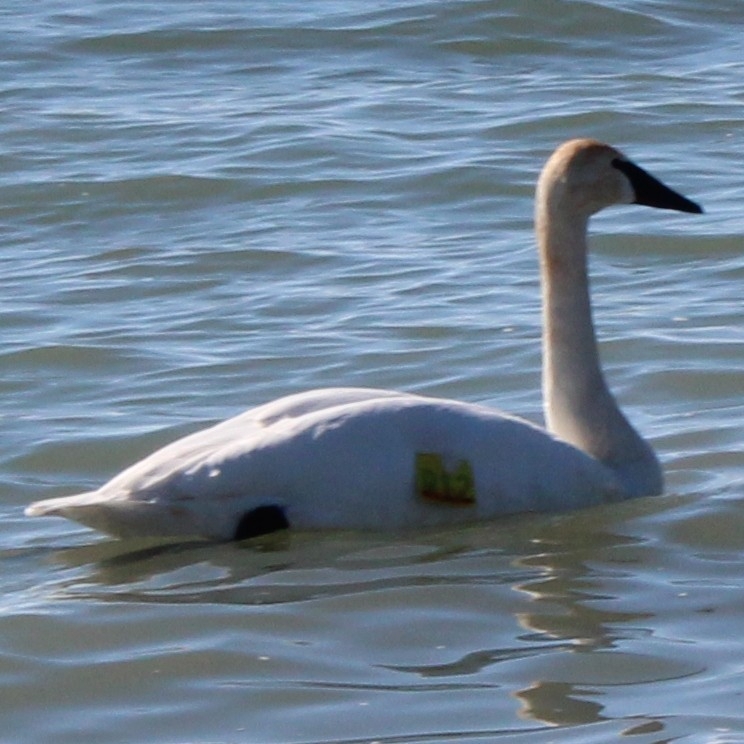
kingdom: Animalia
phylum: Chordata
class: Aves
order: Anseriformes
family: Anatidae
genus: Cygnus
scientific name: Cygnus buccinator
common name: Trumpeter swan
